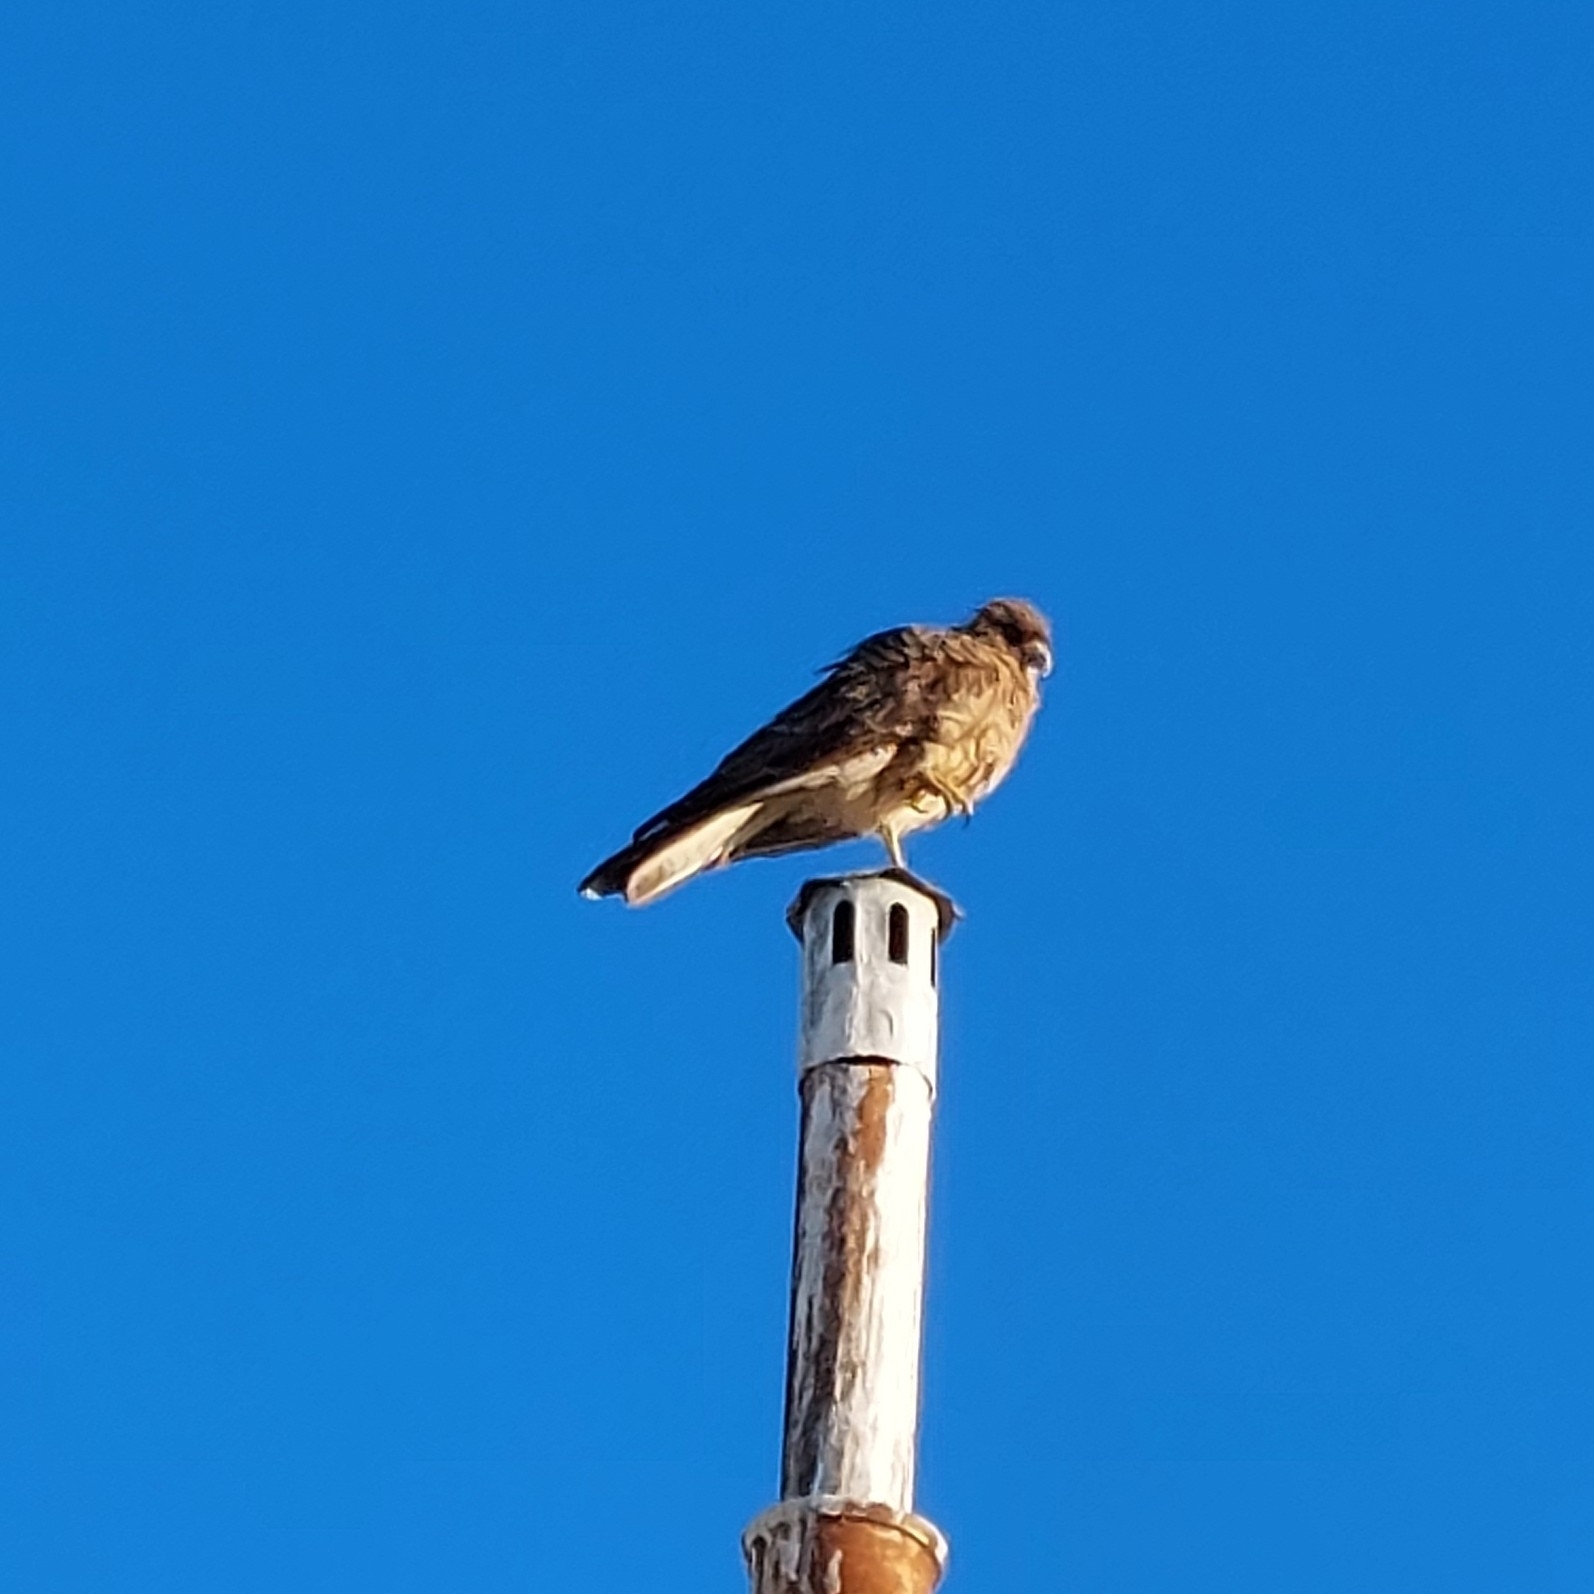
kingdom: Animalia
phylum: Chordata
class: Aves
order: Falconiformes
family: Falconidae
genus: Daptrius
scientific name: Daptrius
